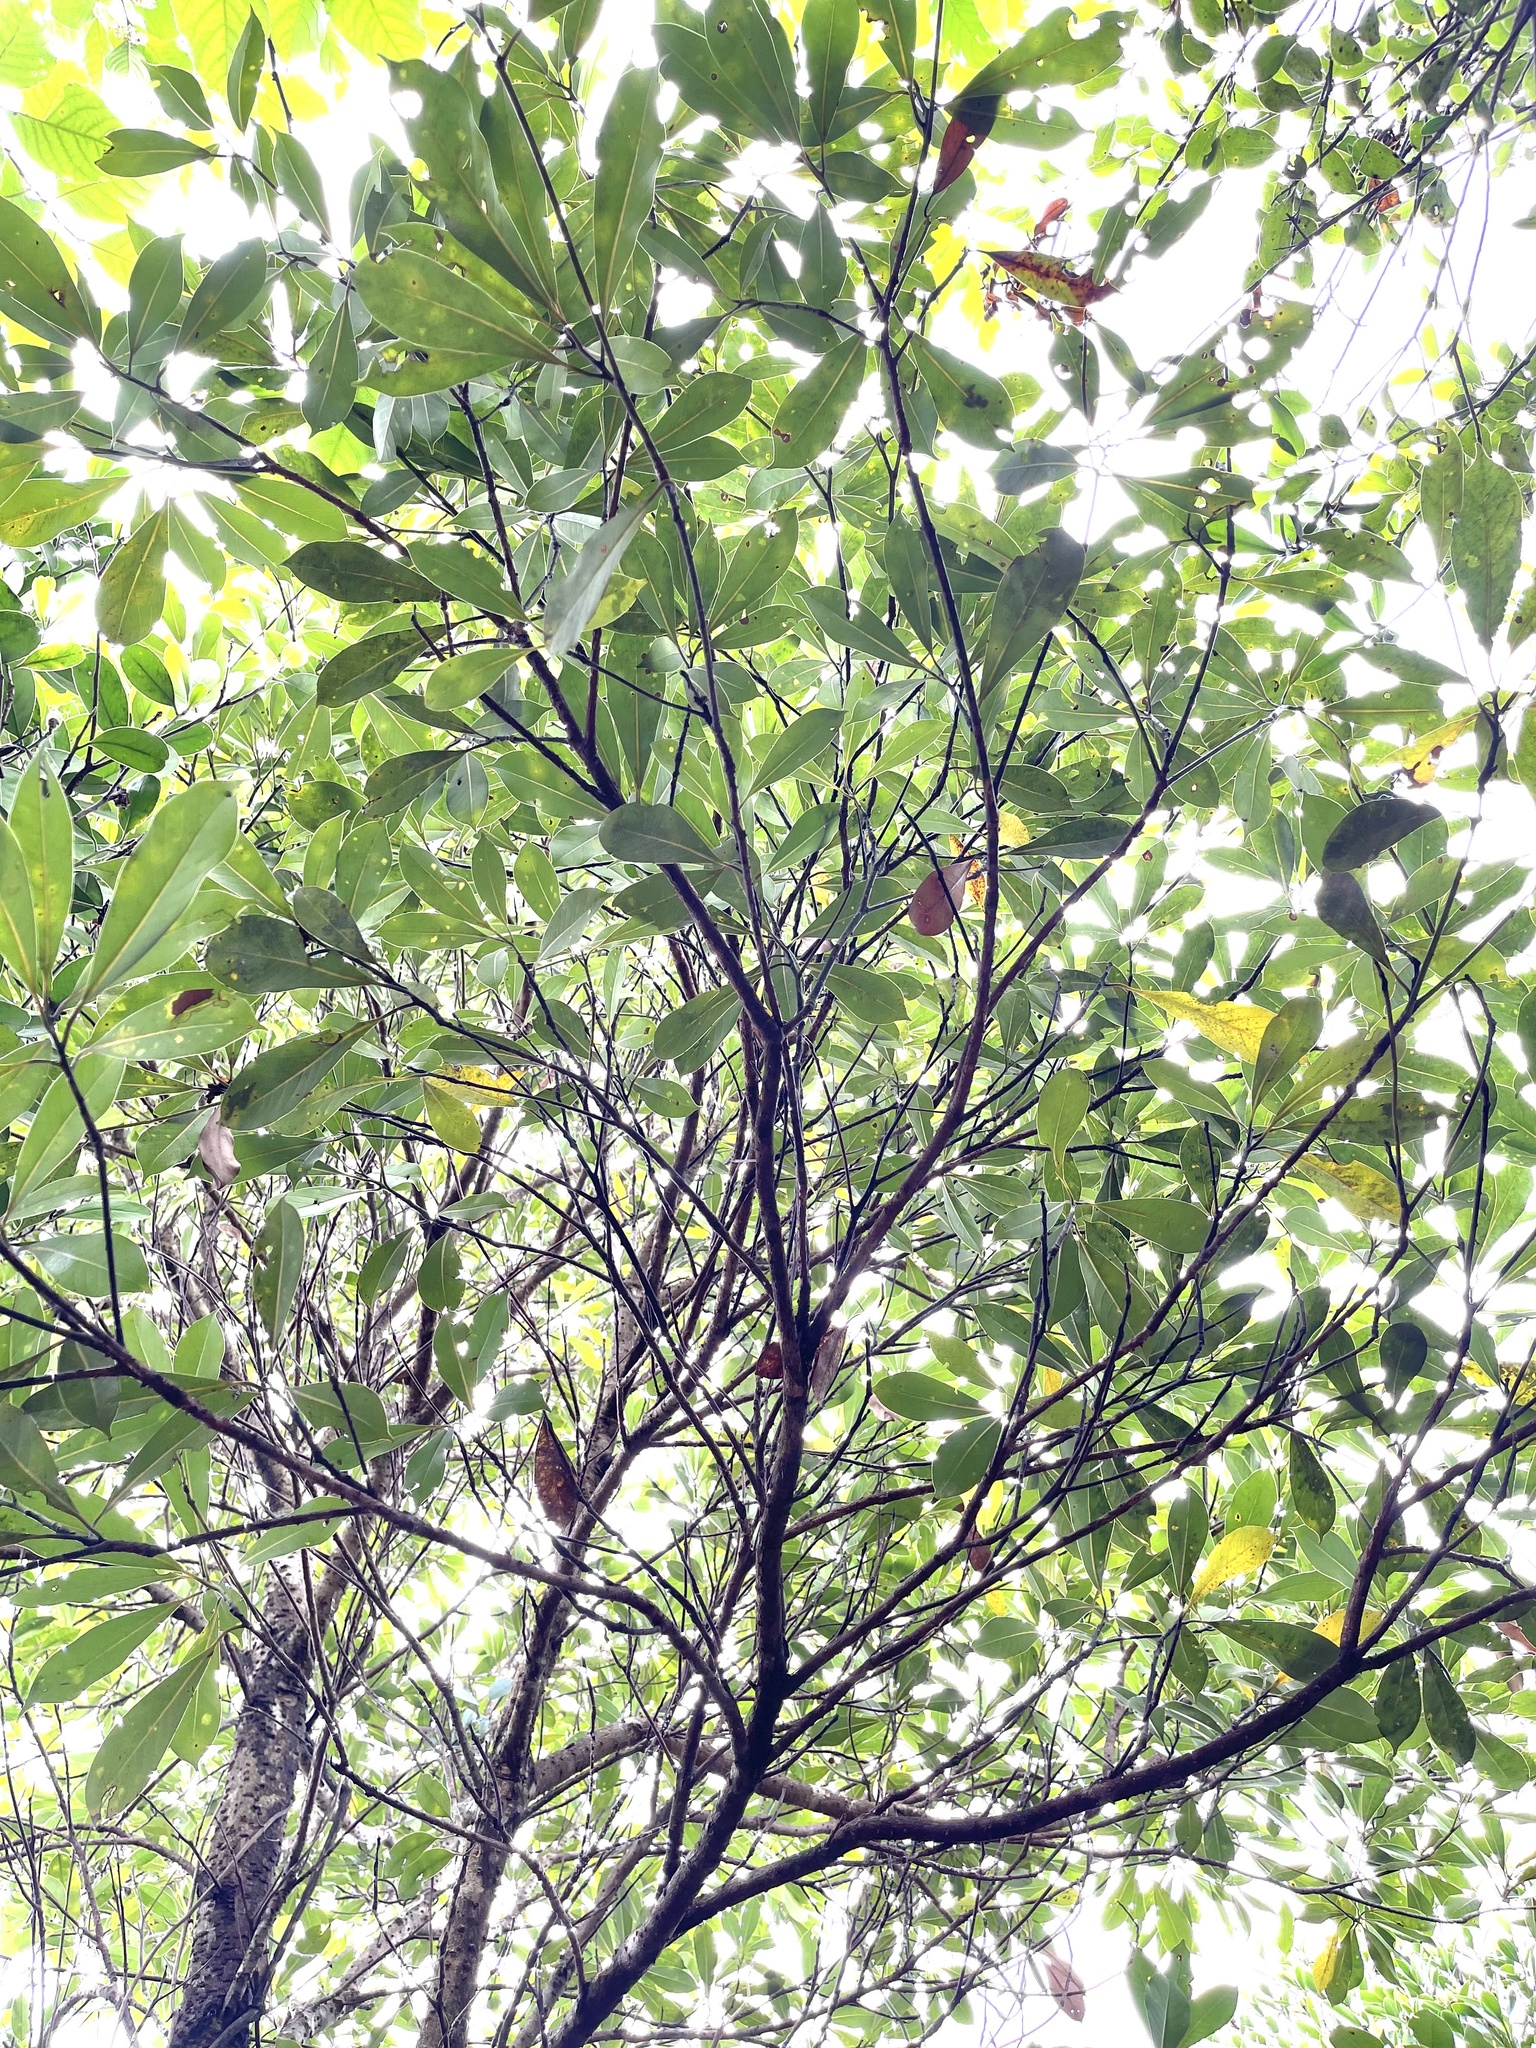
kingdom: Plantae
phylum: Tracheophyta
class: Magnoliopsida
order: Fagales
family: Myricaceae
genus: Morella
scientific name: Morella rubra
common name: Red bayberry
